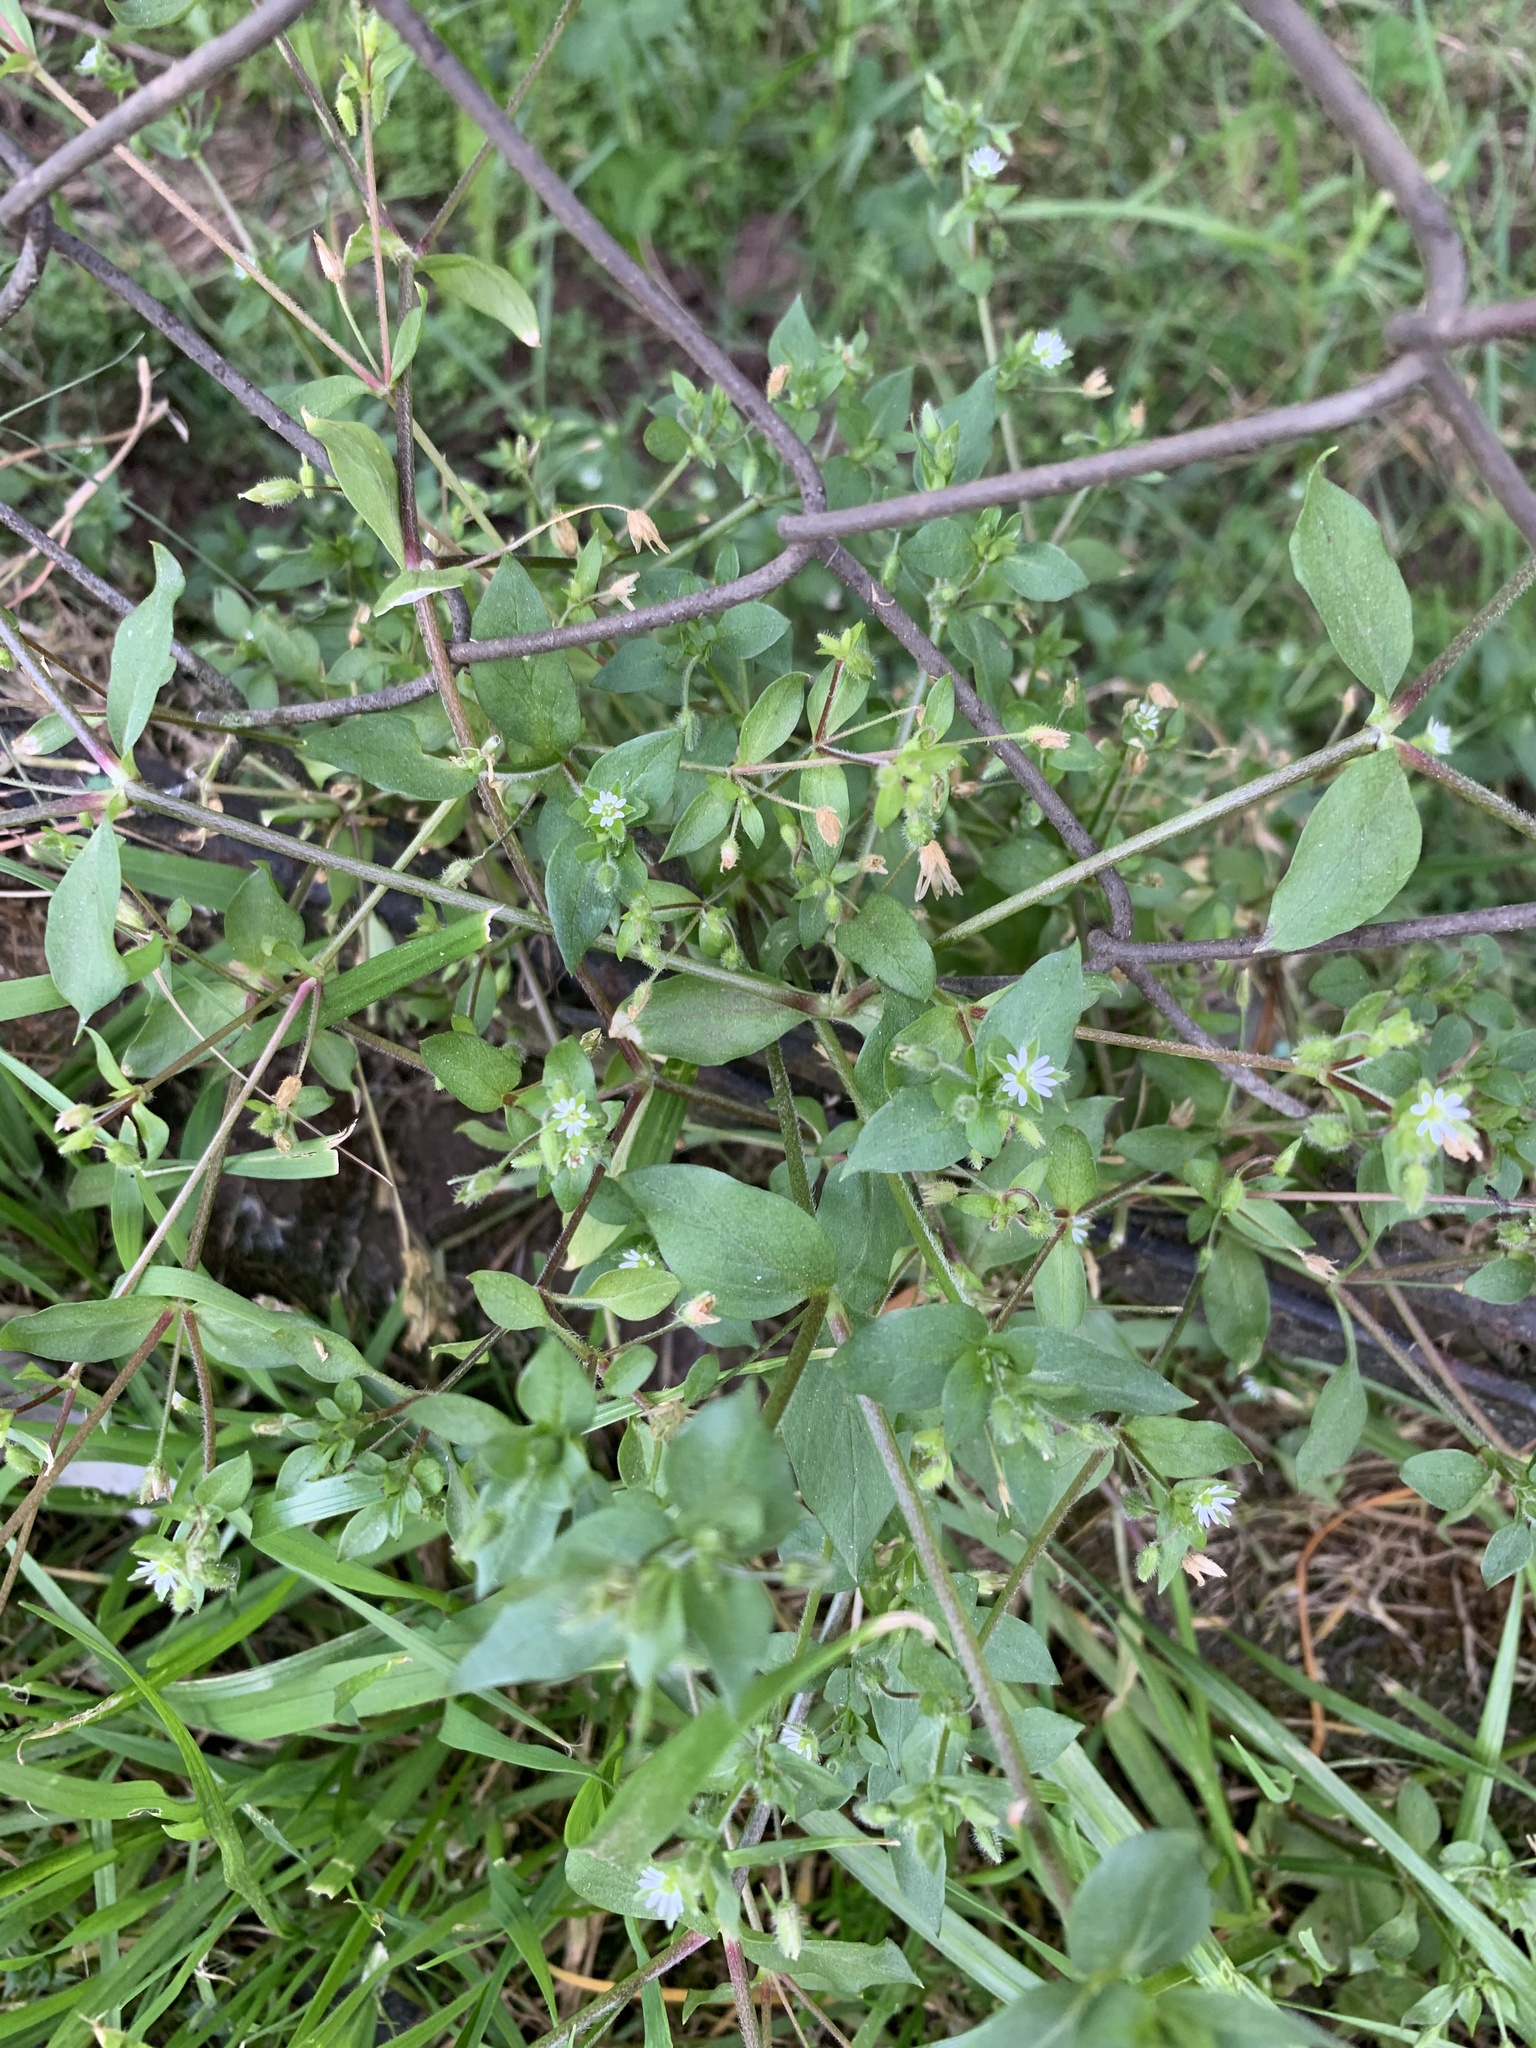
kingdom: Plantae
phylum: Tracheophyta
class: Magnoliopsida
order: Caryophyllales
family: Caryophyllaceae
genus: Stellaria
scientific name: Stellaria media
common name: Common chickweed
